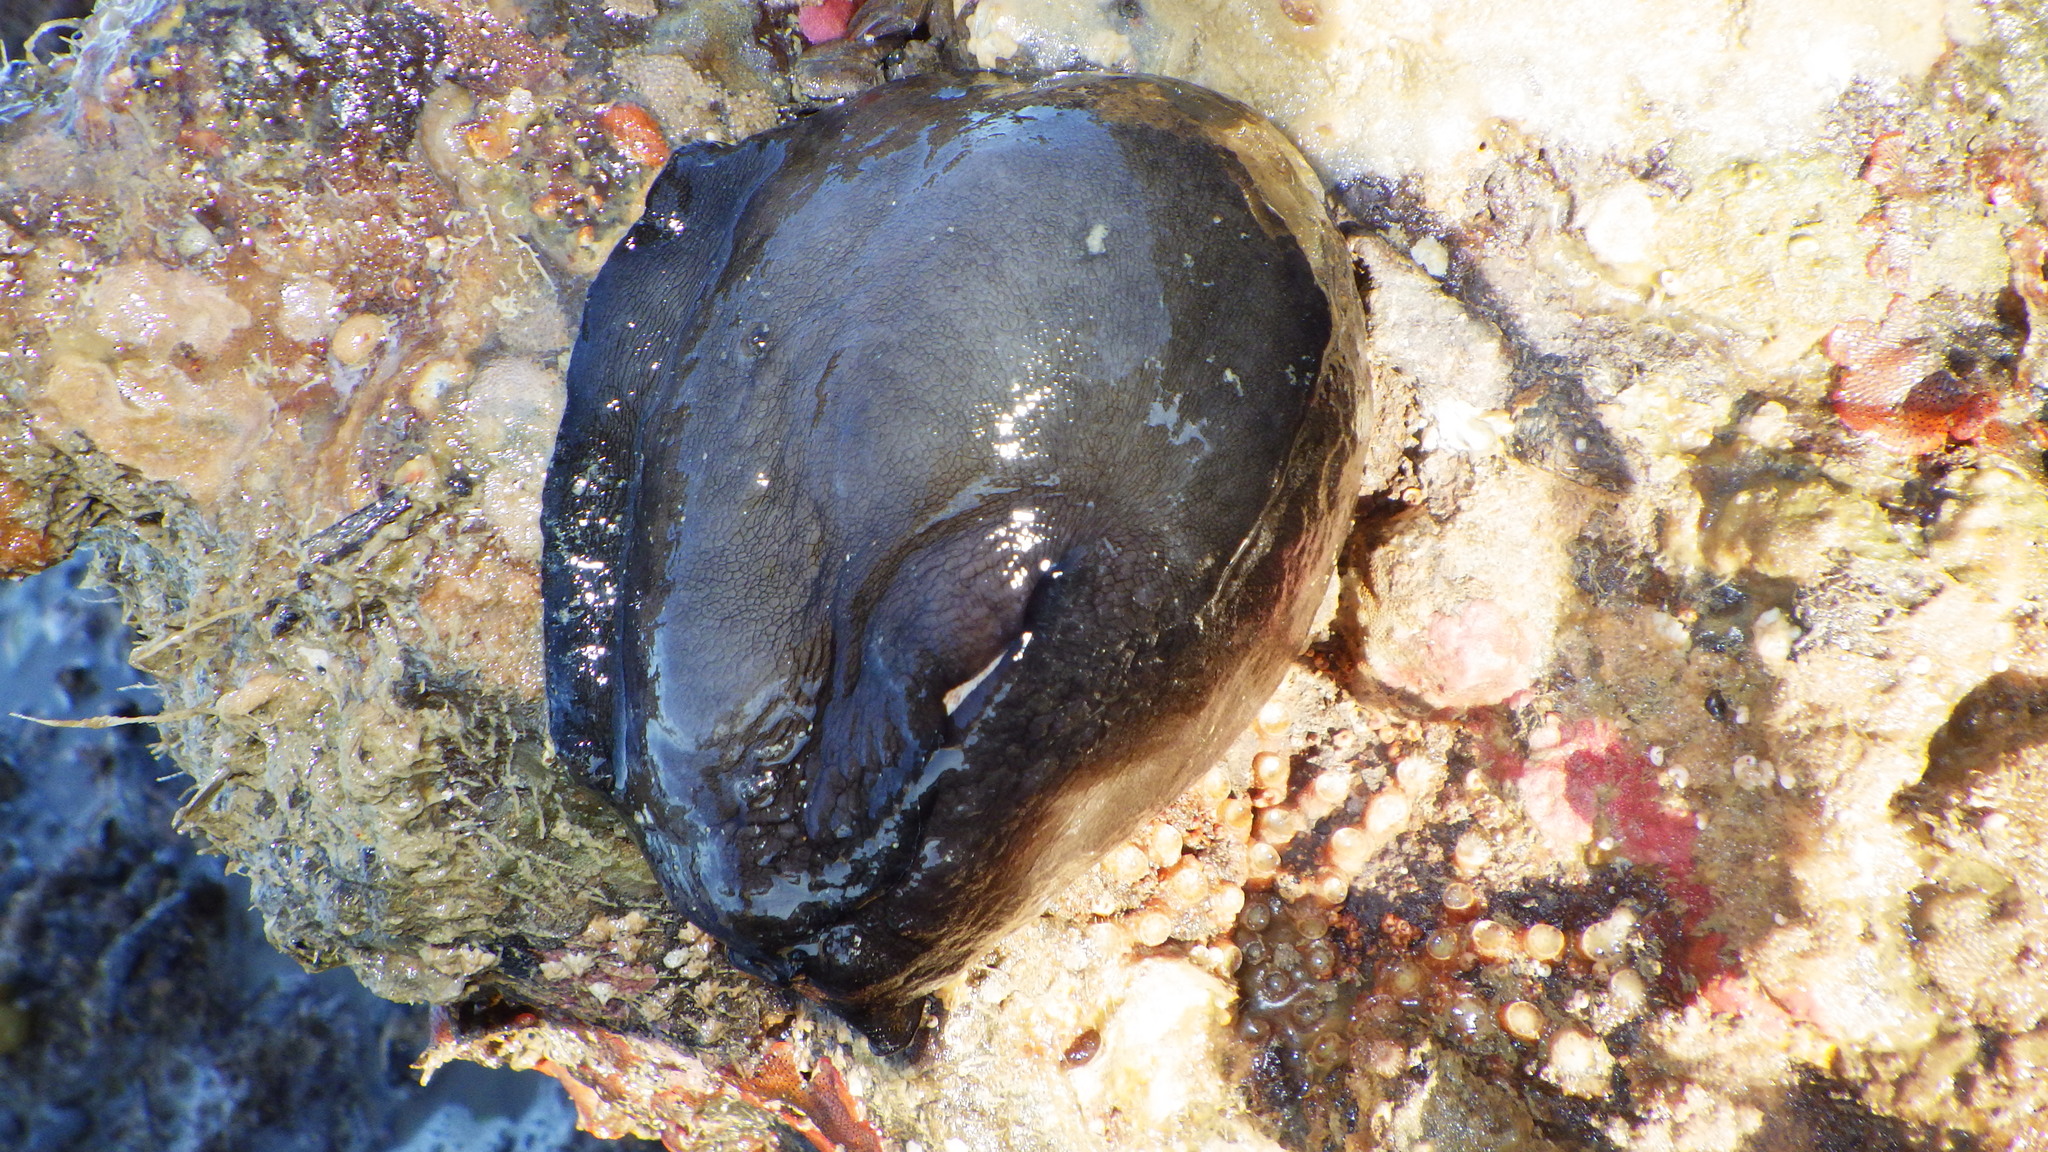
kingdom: Animalia
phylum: Mollusca
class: Gastropoda
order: Lepetellida
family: Fissurellidae
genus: Scutus
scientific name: Scutus breviculus
